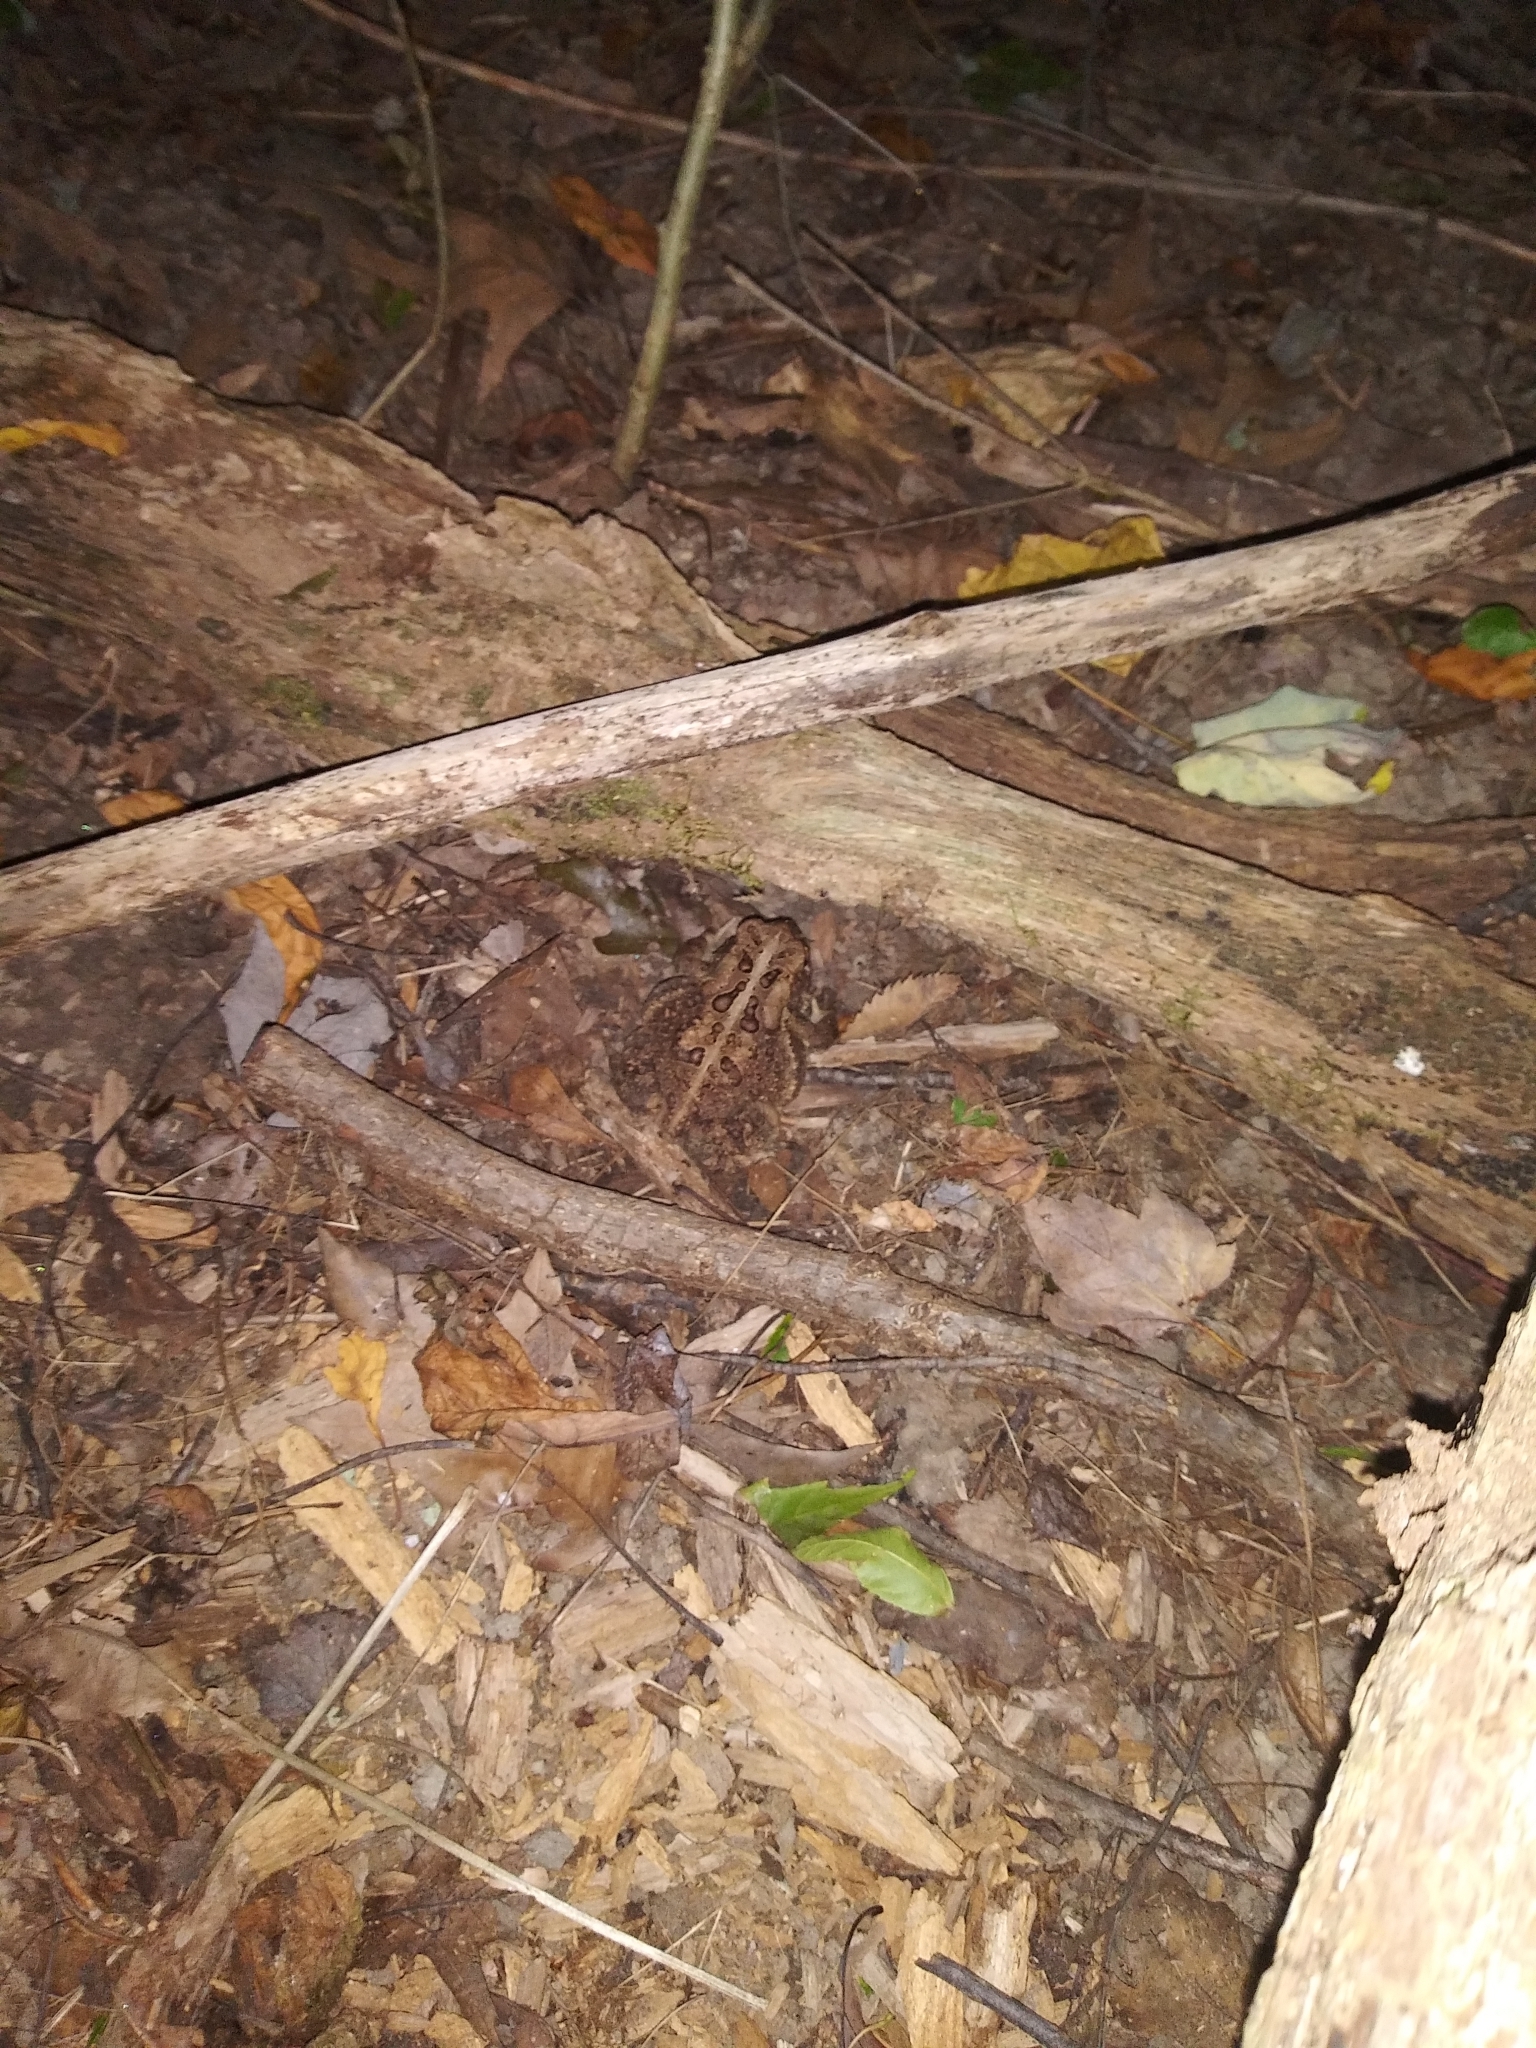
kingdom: Animalia
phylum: Chordata
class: Amphibia
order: Anura
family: Bufonidae
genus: Anaxyrus
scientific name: Anaxyrus americanus
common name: American toad
